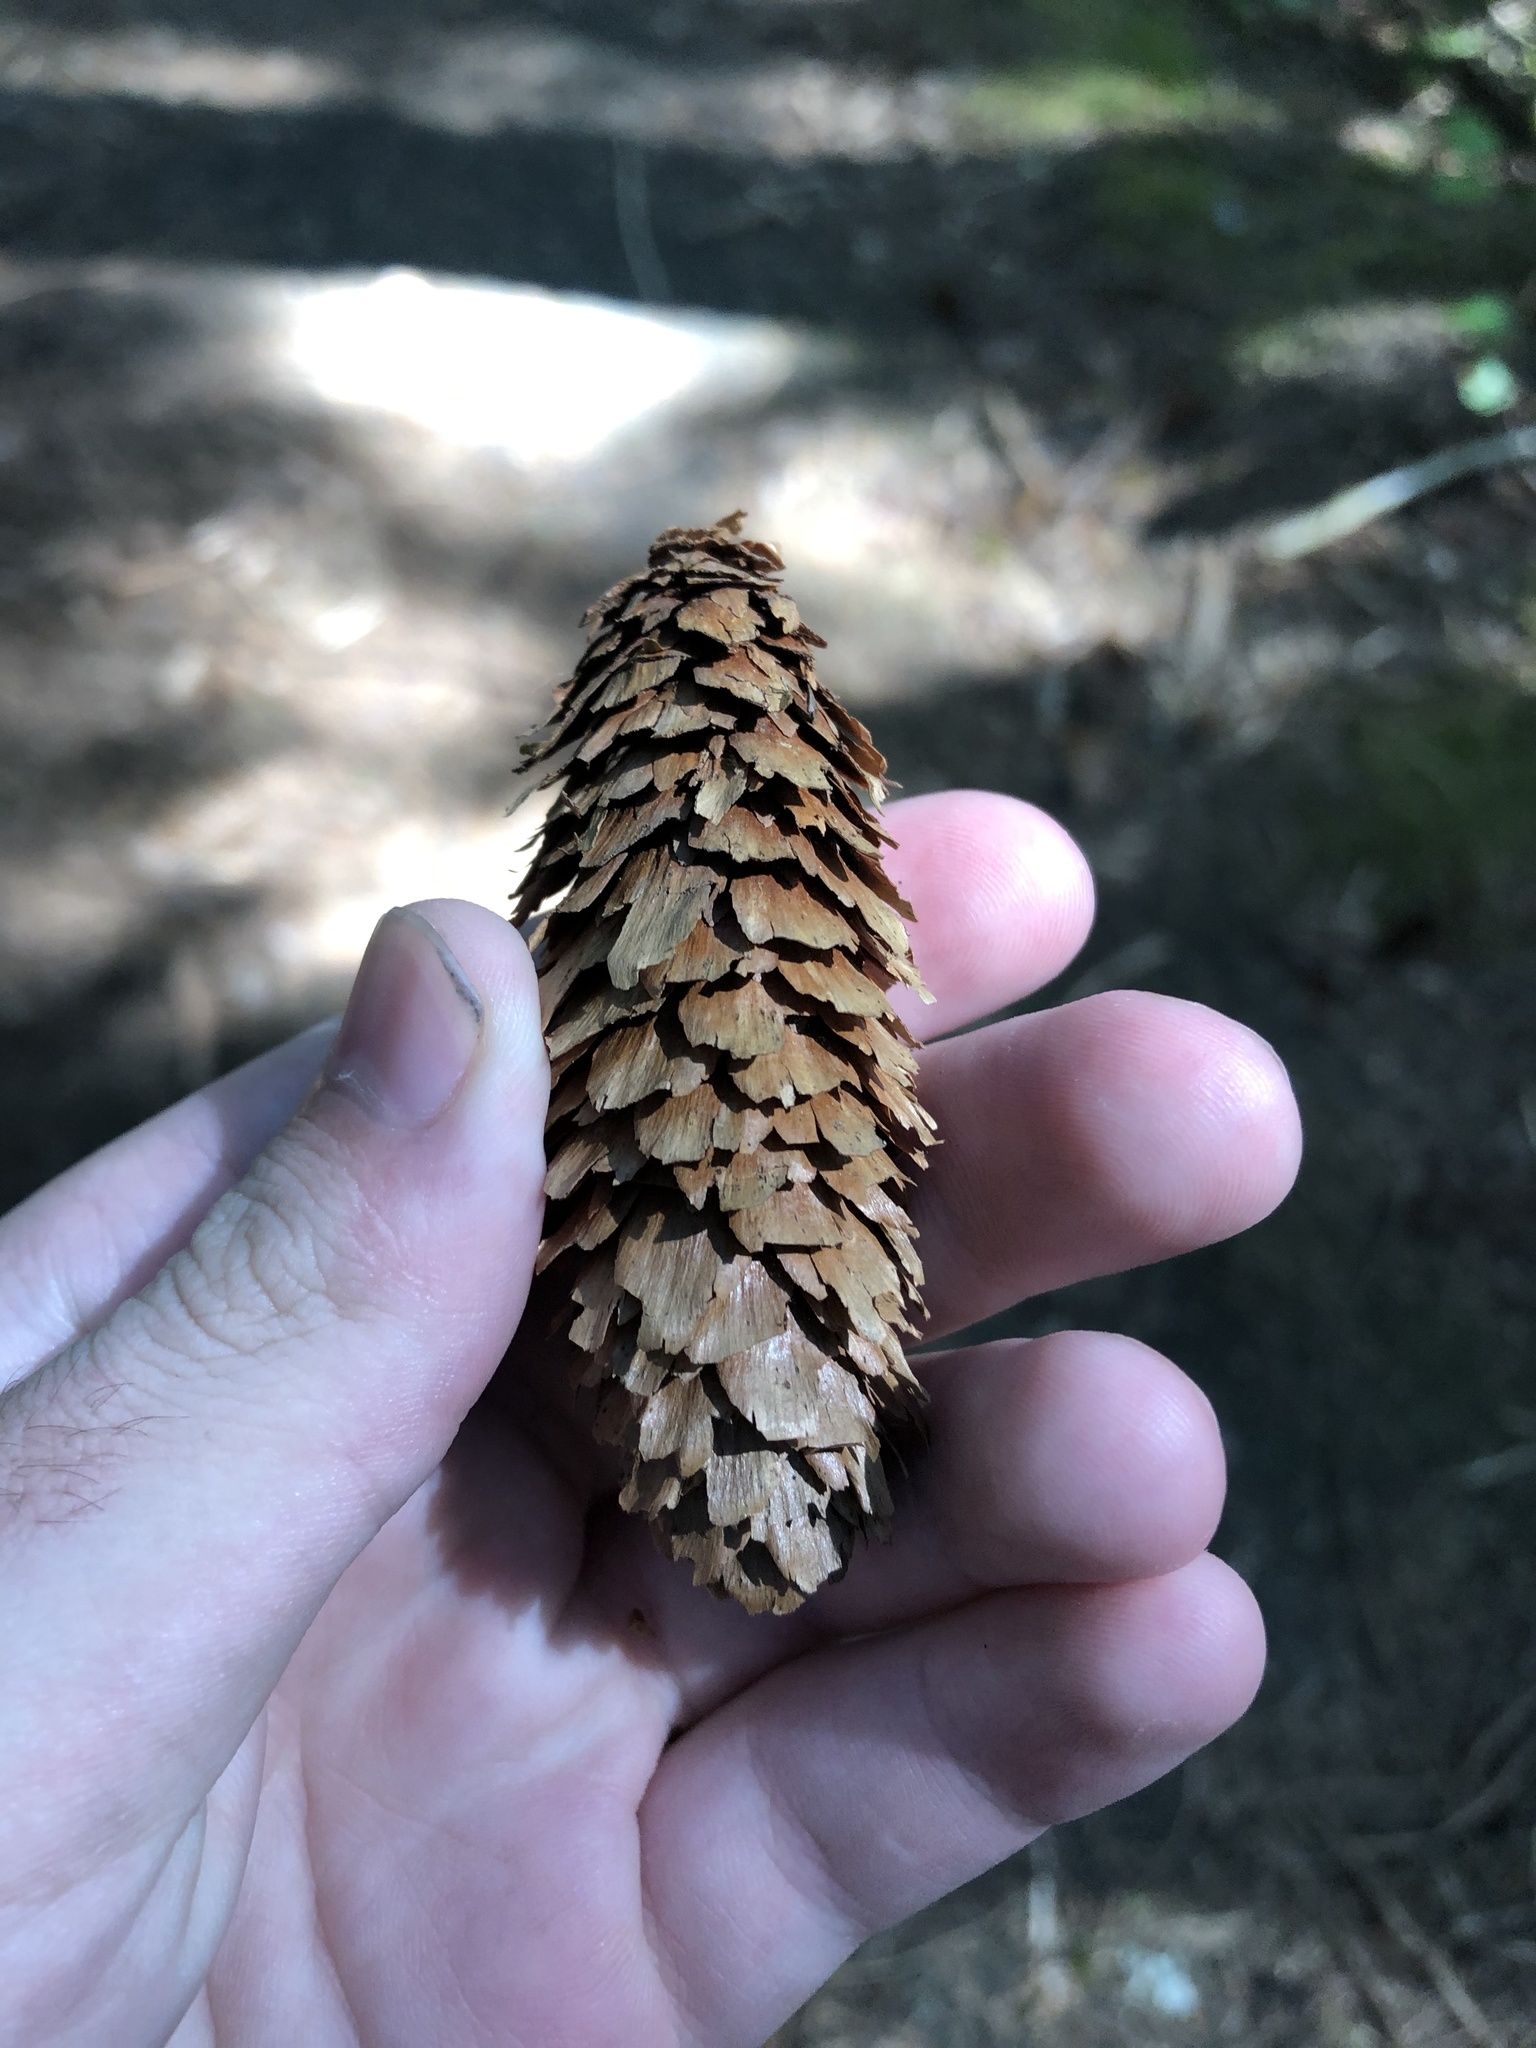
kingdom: Plantae
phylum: Tracheophyta
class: Pinopsida
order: Pinales
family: Pinaceae
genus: Picea
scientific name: Picea sitchensis
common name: Sitka spruce
